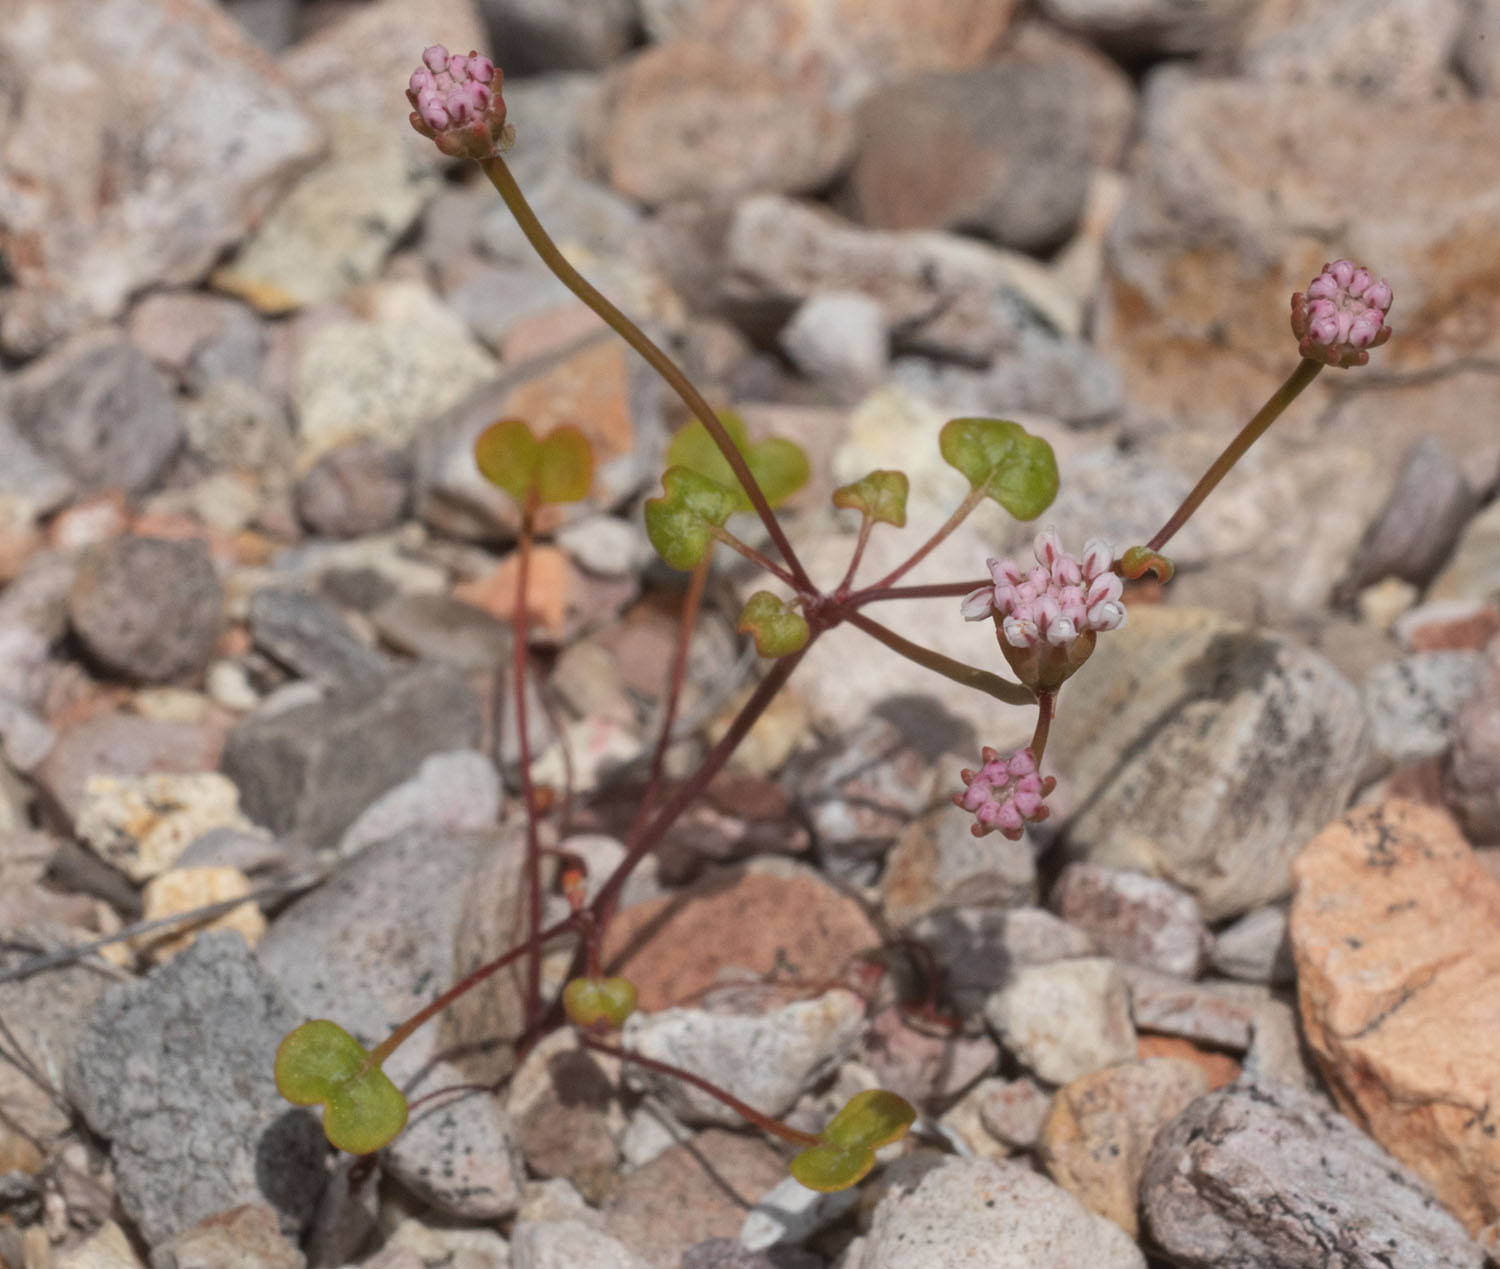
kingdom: Plantae
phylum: Tracheophyta
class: Magnoliopsida
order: Caryophyllales
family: Polygonaceae
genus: Eriogonum
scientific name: Eriogonum nortonii
